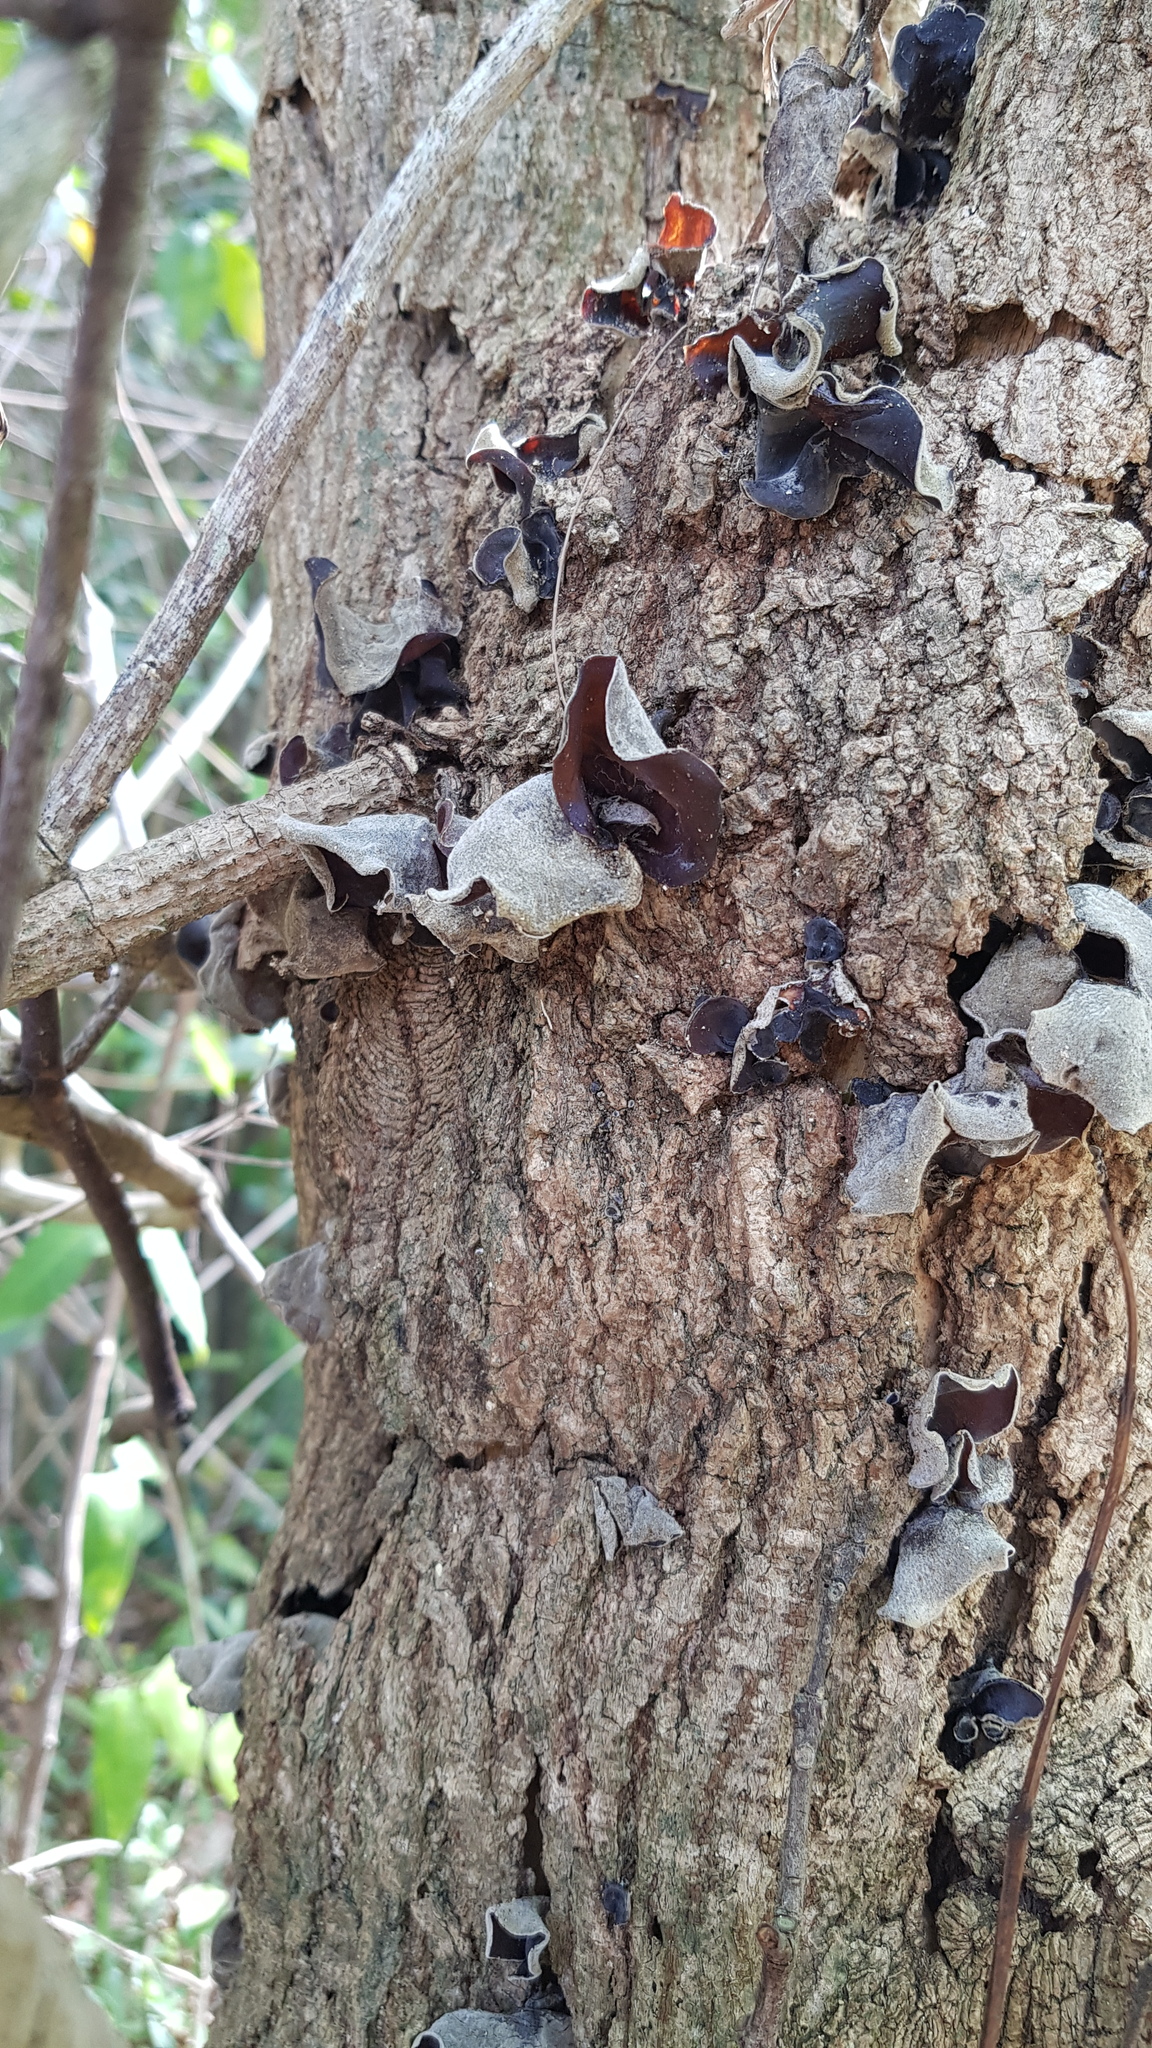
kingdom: Fungi
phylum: Basidiomycota
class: Agaricomycetes
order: Auriculariales
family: Auriculariaceae
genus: Auricularia
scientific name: Auricularia cornea
